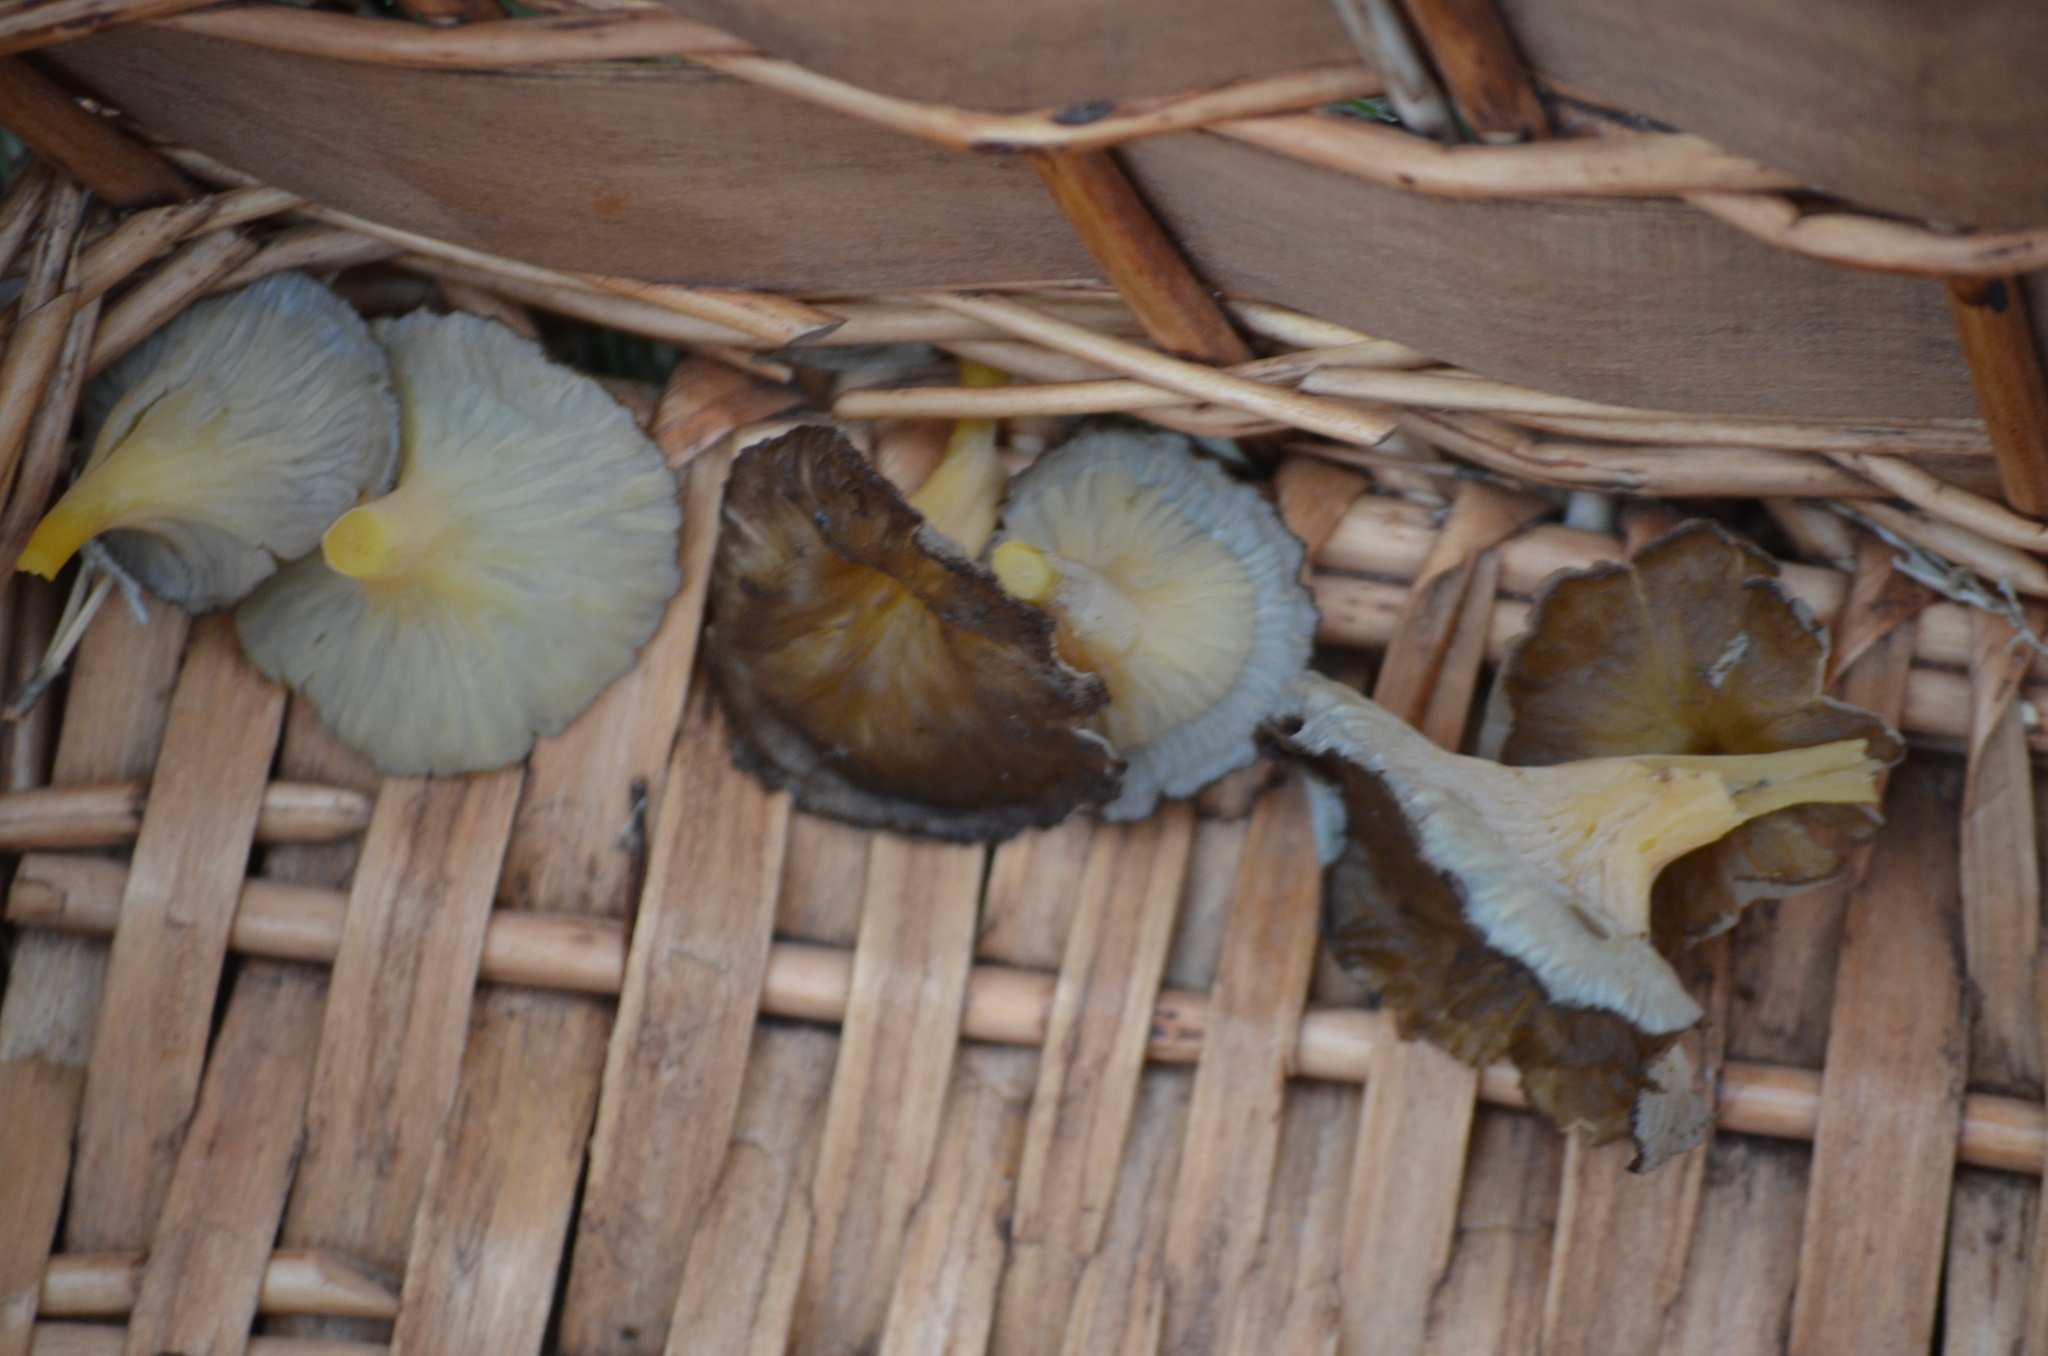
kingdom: Fungi
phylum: Basidiomycota
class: Agaricomycetes
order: Cantharellales
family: Hydnaceae
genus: Craterellus
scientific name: Craterellus lutescens
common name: Golden chanterelle
